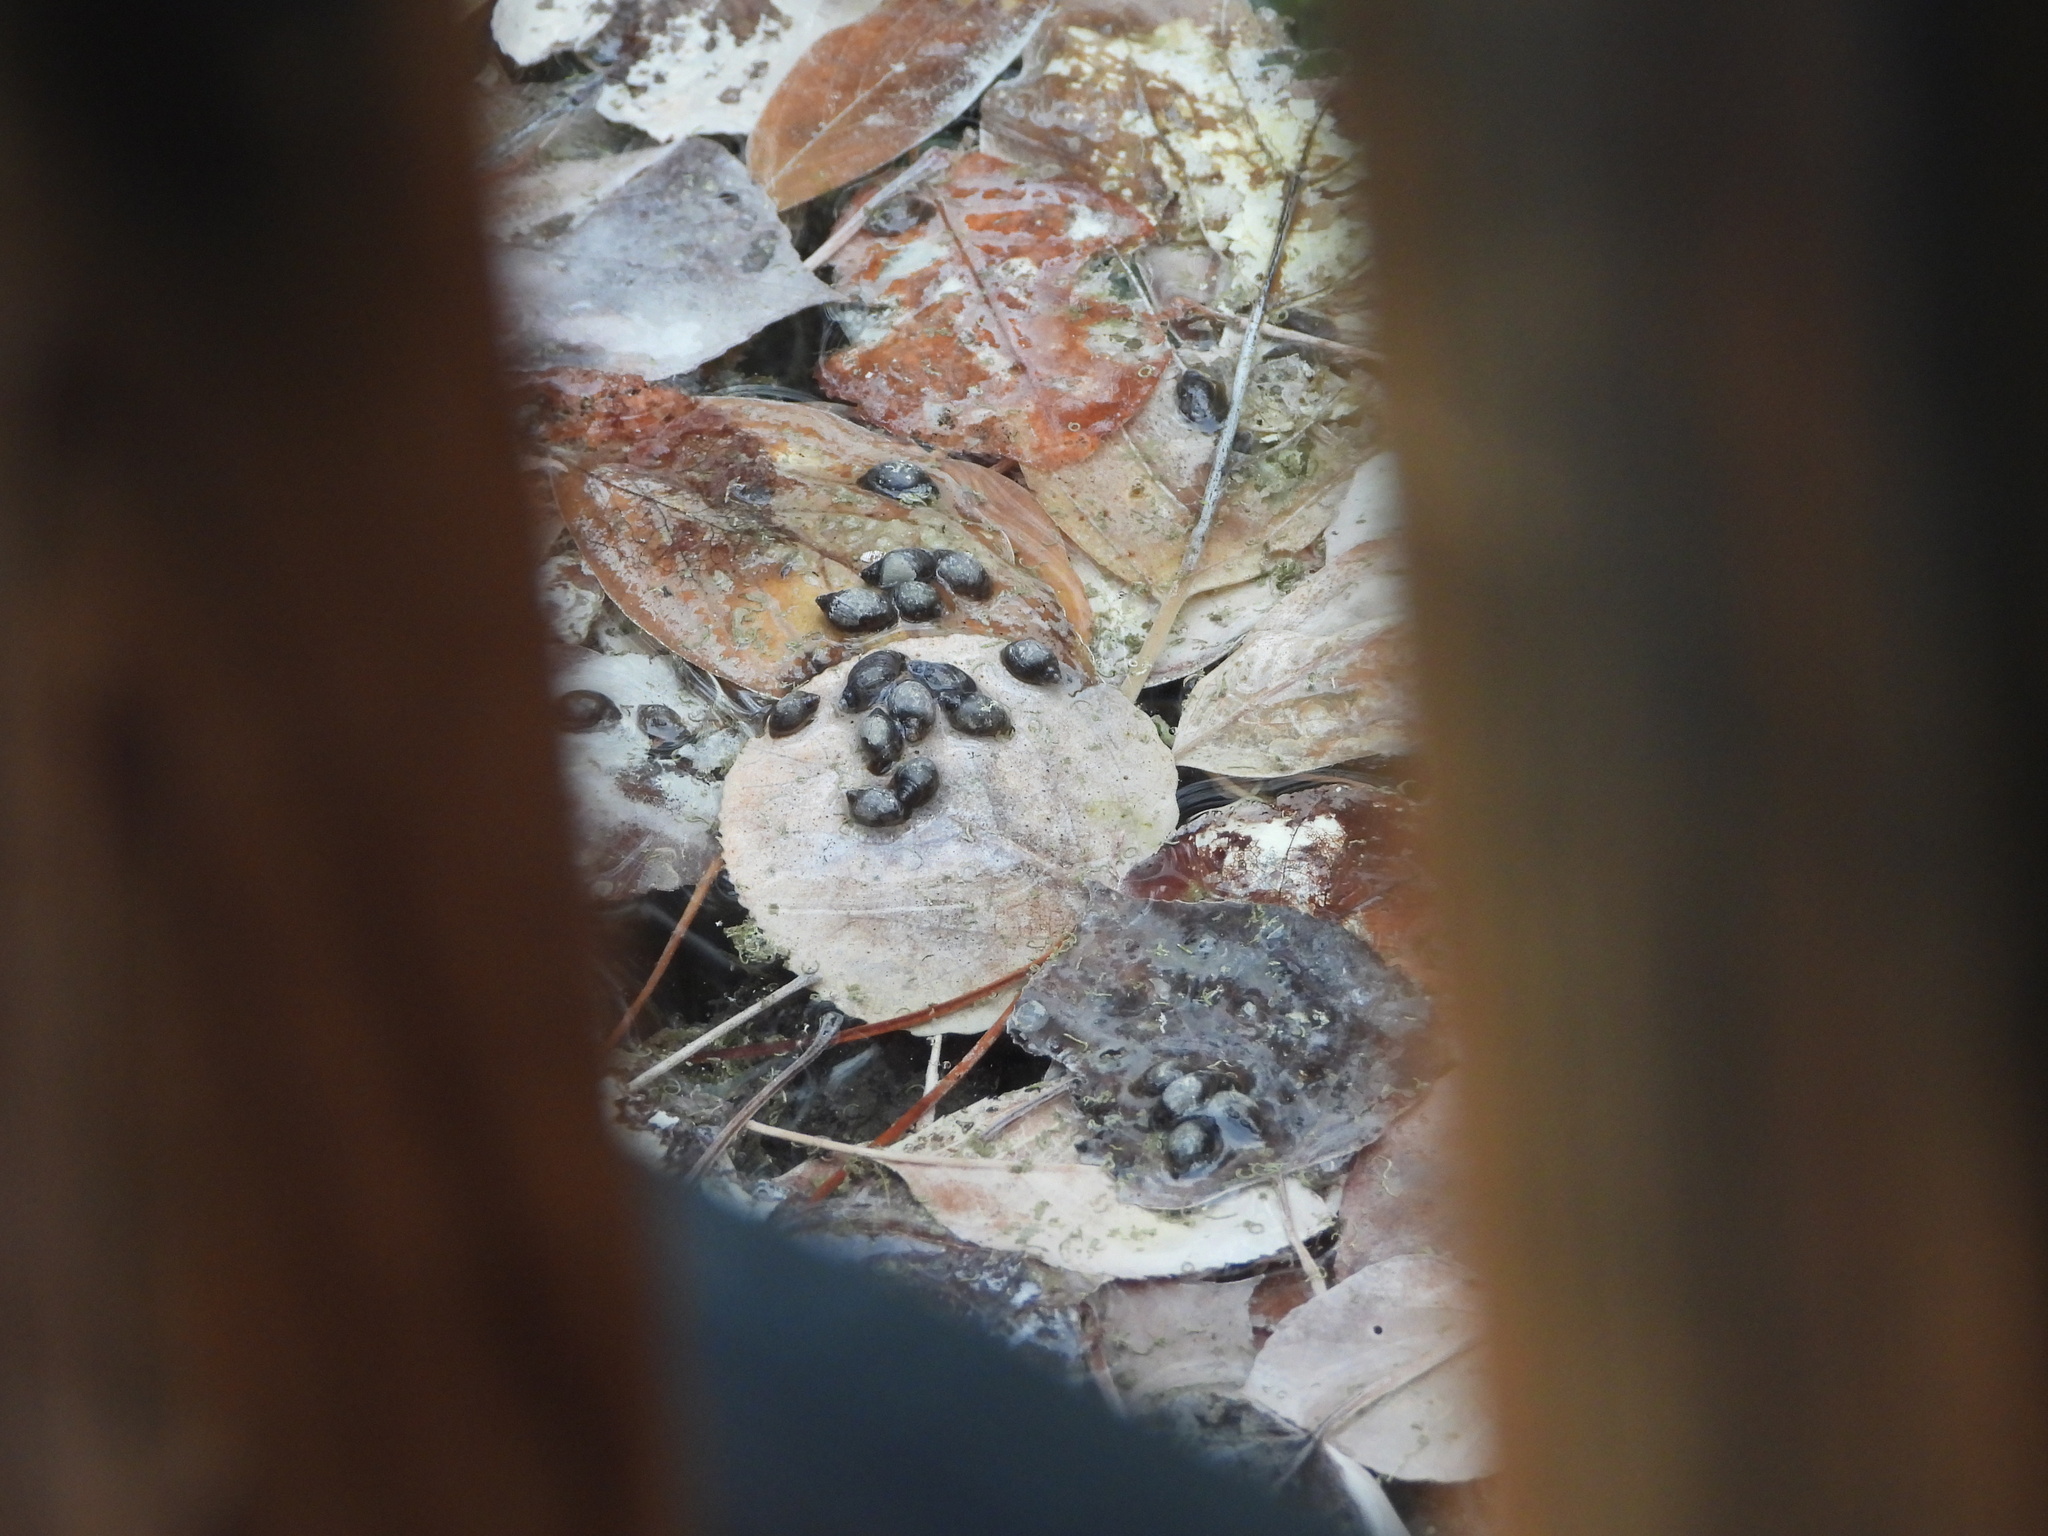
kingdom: Animalia
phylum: Mollusca
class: Gastropoda
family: Physidae
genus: Physella
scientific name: Physella johnsoni
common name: Banff springs physa
